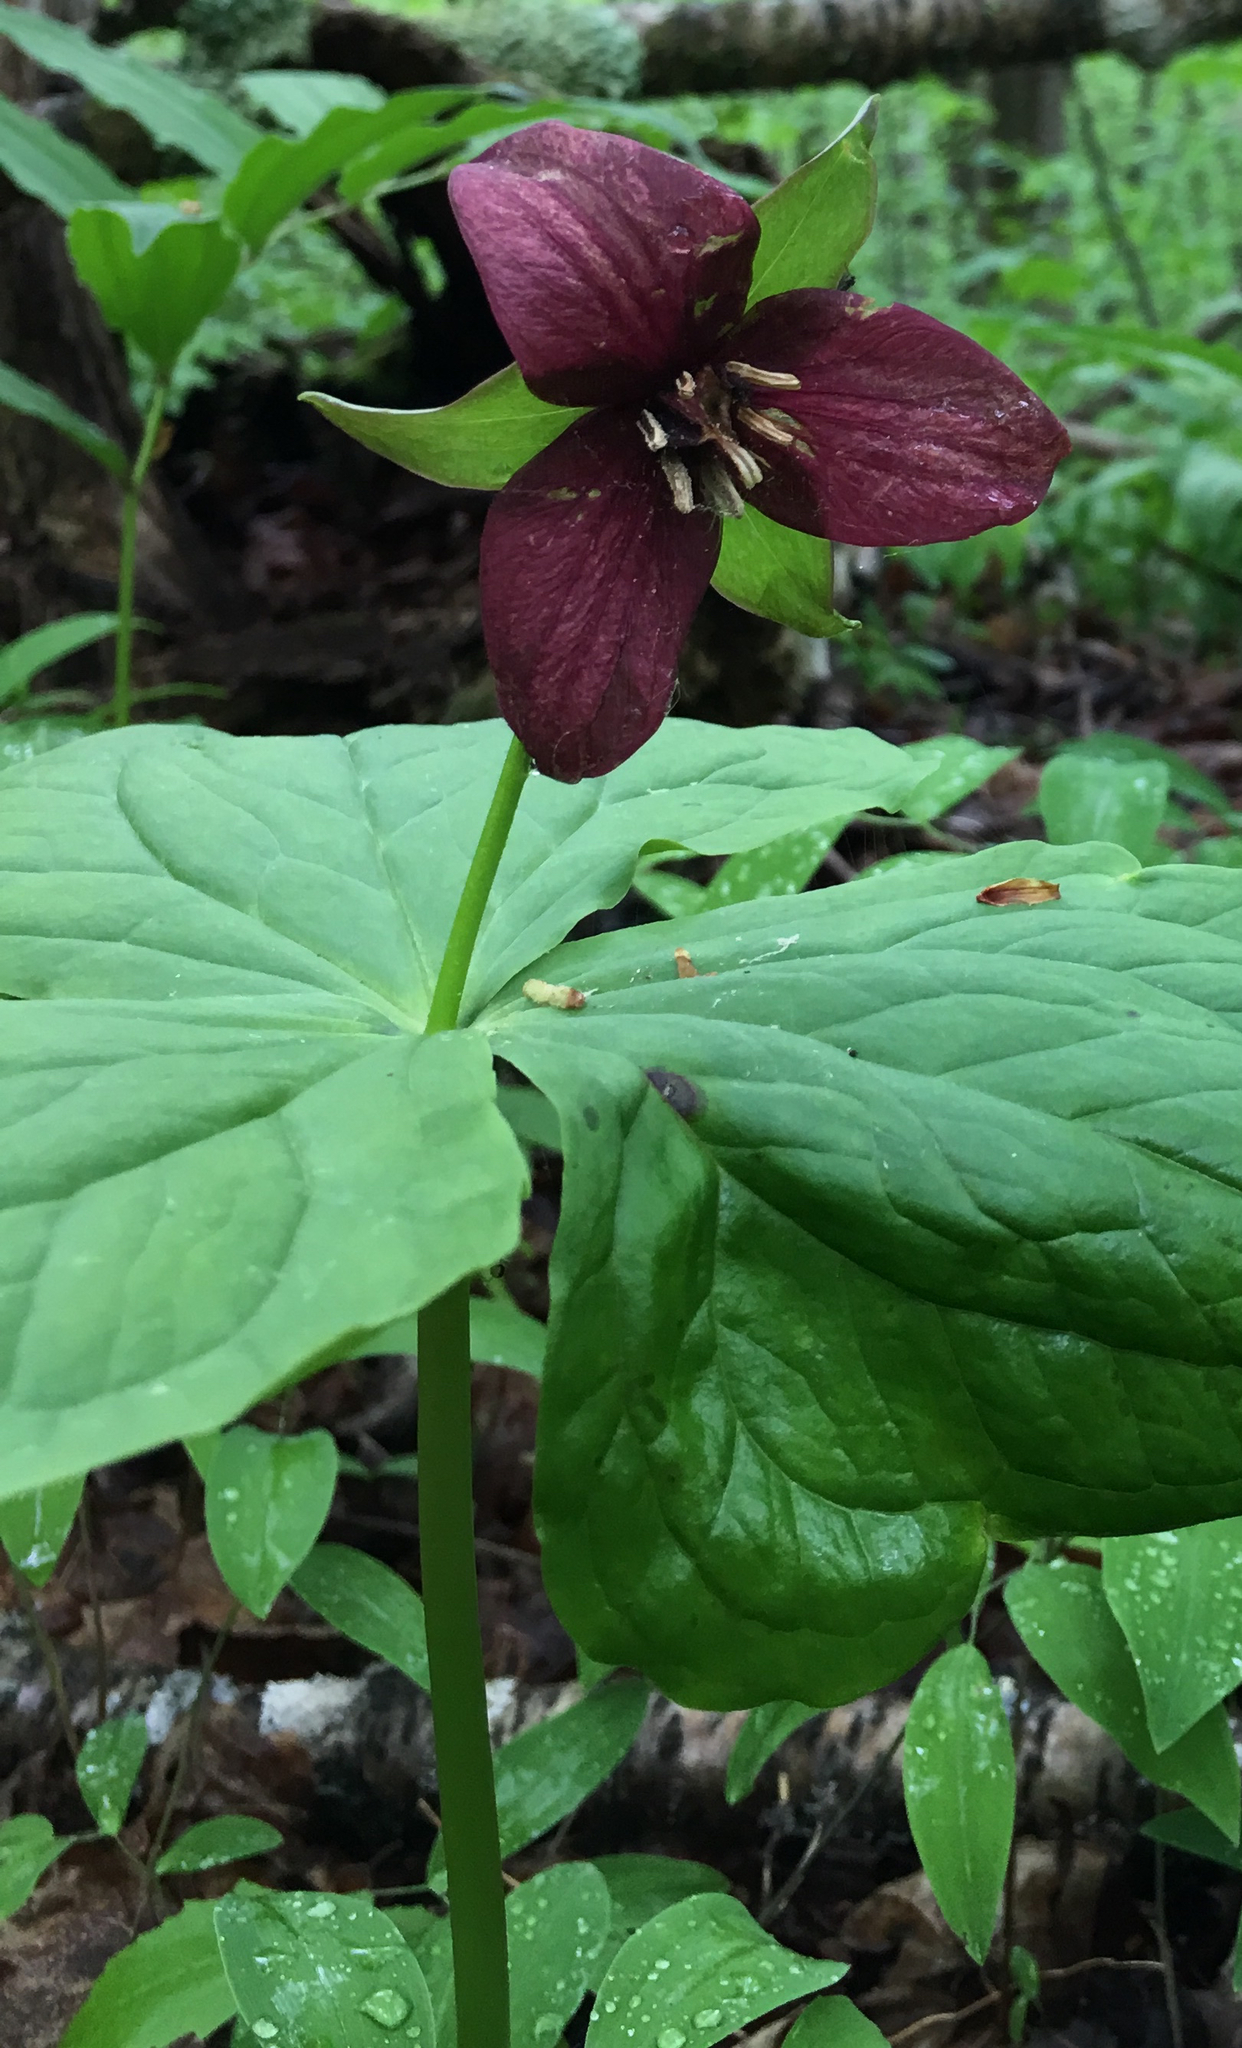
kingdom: Plantae
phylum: Tracheophyta
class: Liliopsida
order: Liliales
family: Melanthiaceae
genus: Trillium
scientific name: Trillium erectum
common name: Purple trillium
